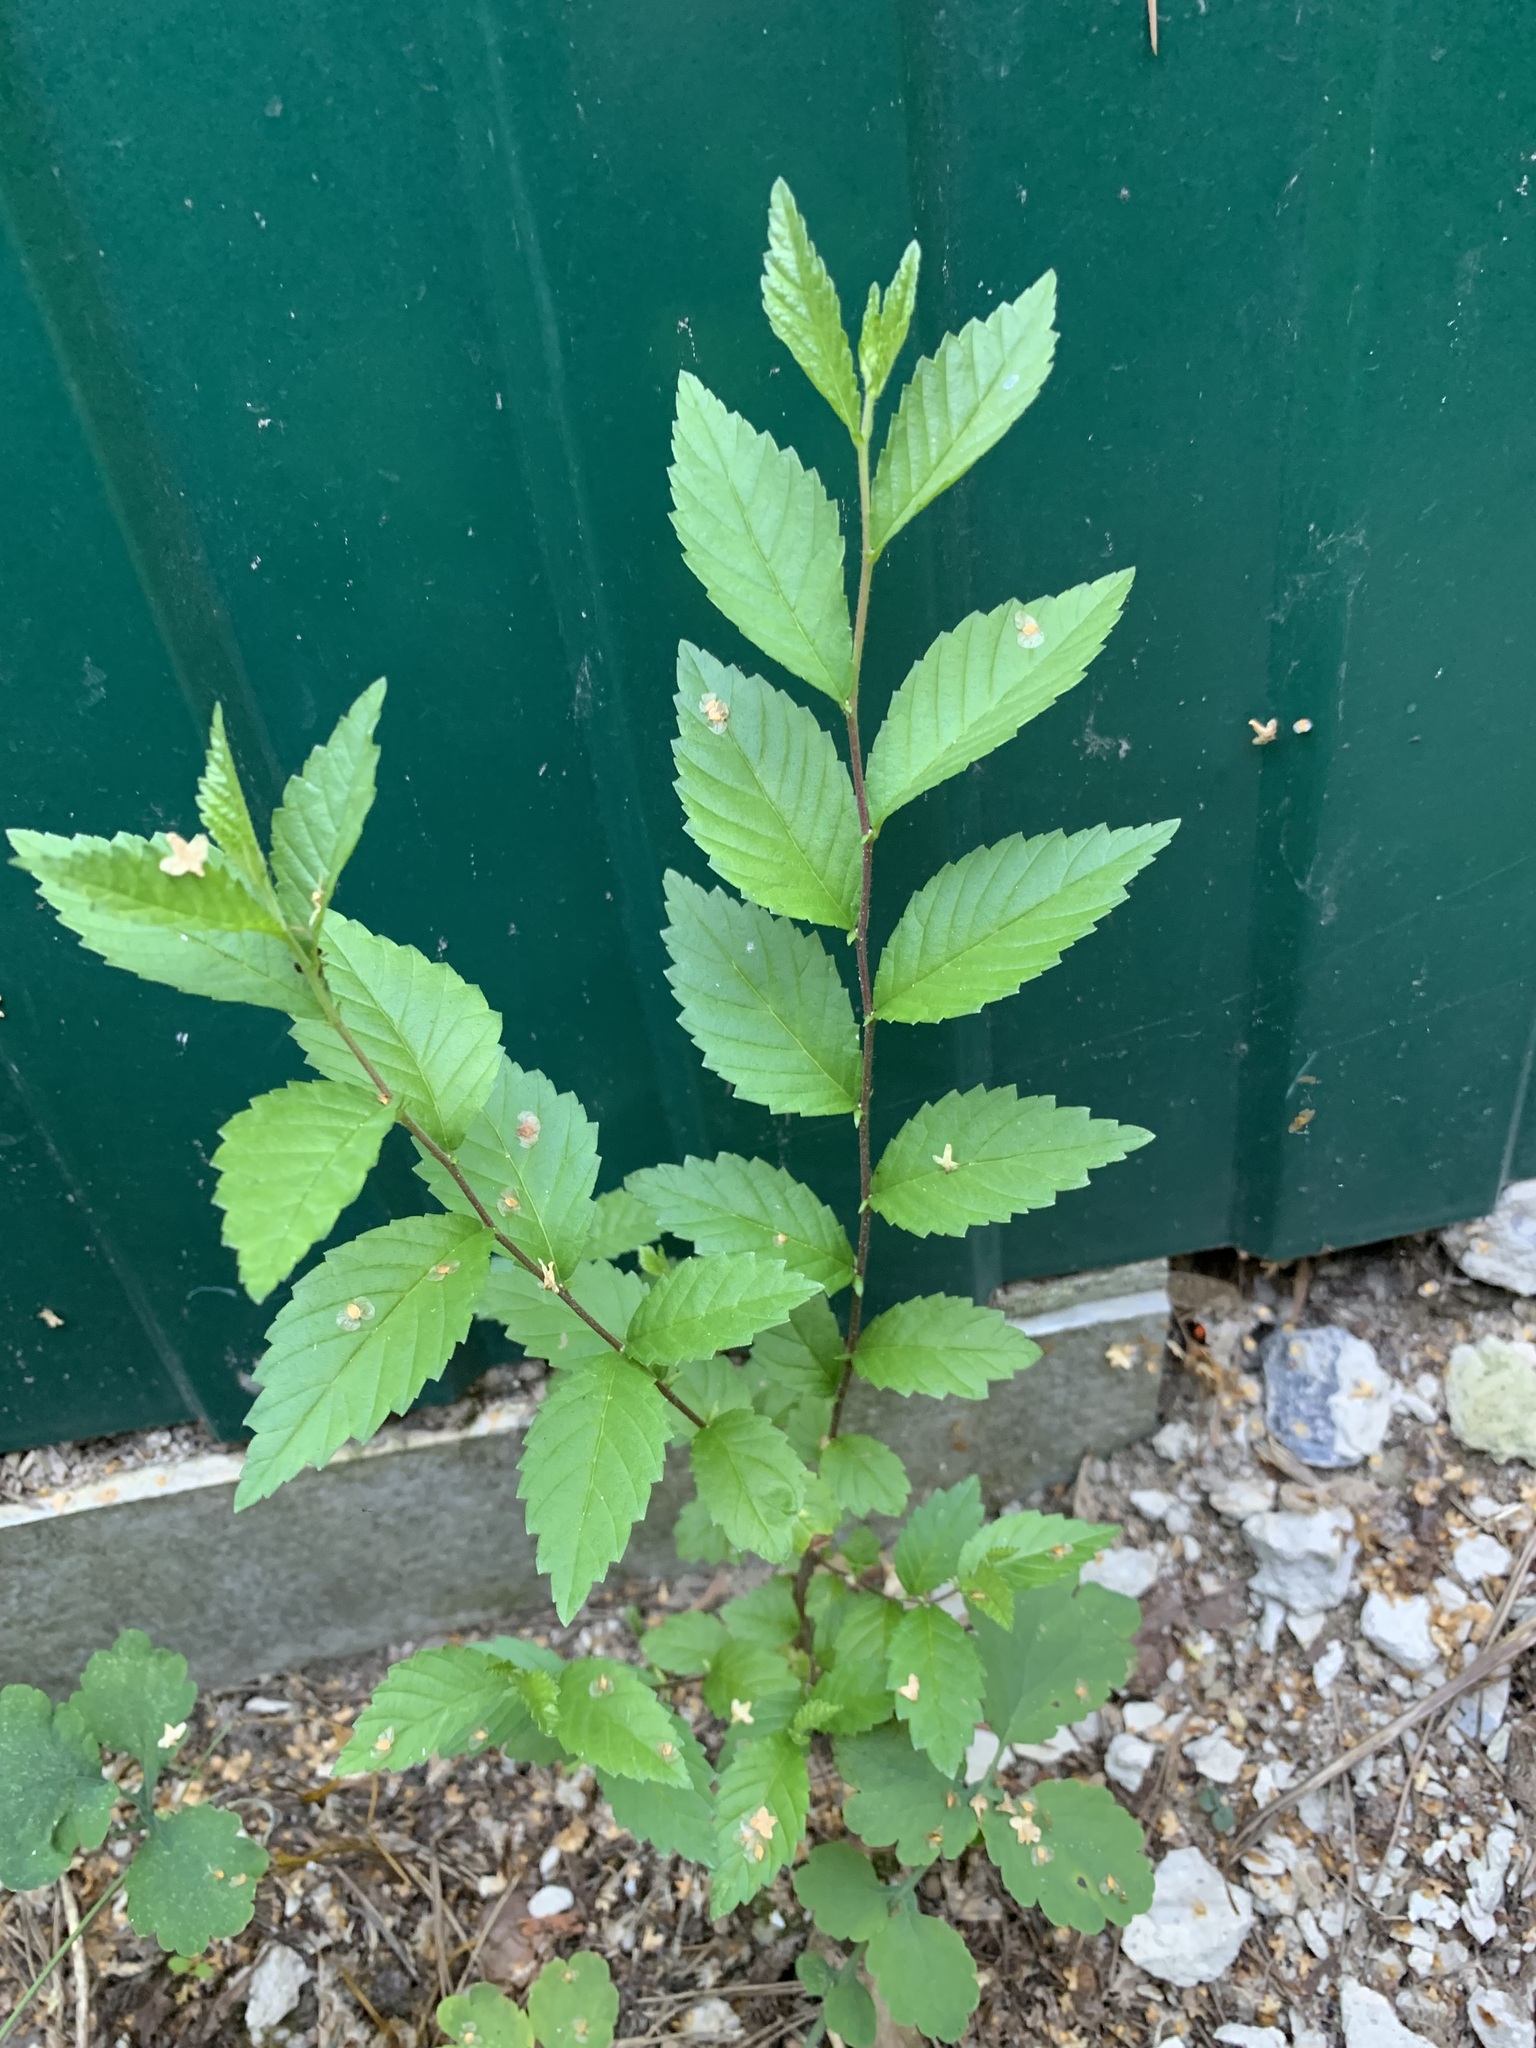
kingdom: Plantae
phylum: Tracheophyta
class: Magnoliopsida
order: Rosales
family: Ulmaceae
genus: Ulmus
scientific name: Ulmus pumila
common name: Siberian elm
